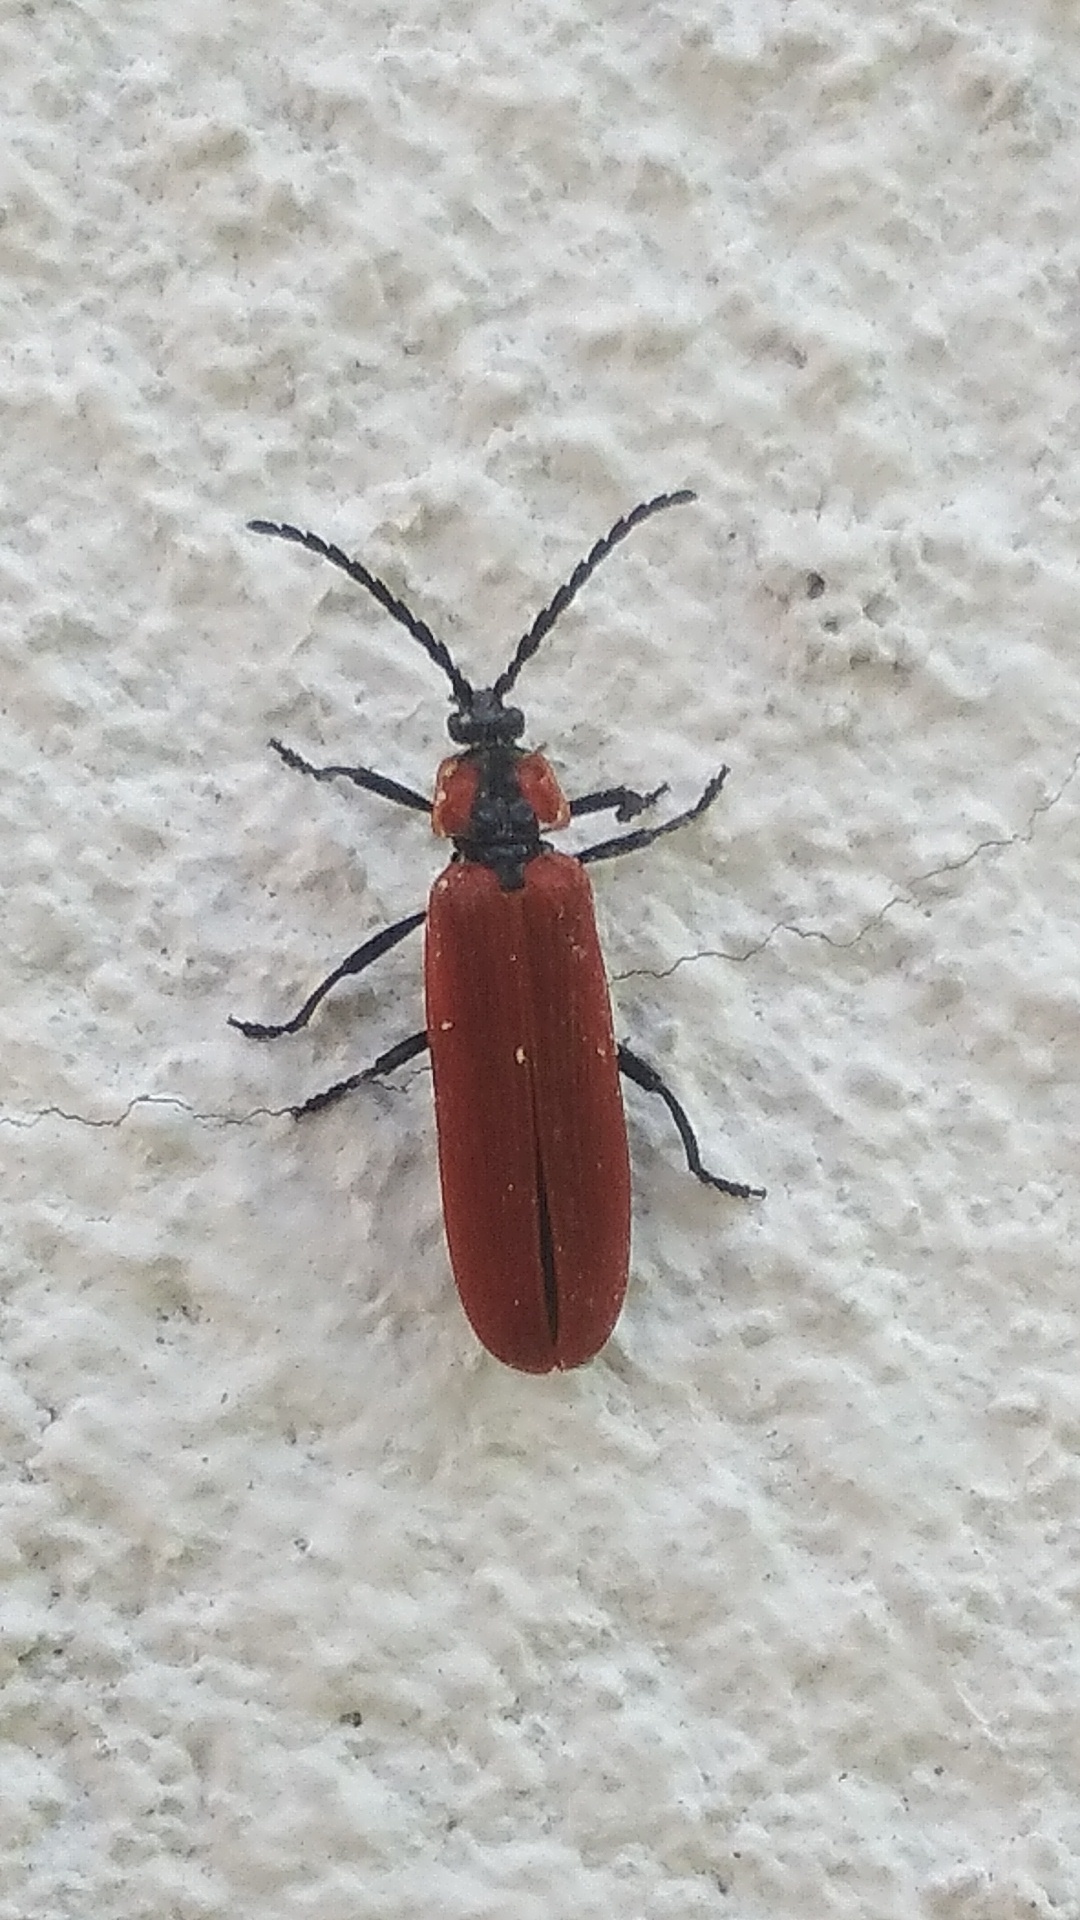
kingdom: Animalia
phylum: Arthropoda
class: Insecta
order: Coleoptera
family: Lycidae
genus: Lygistopterus
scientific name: Lygistopterus sanguineus
